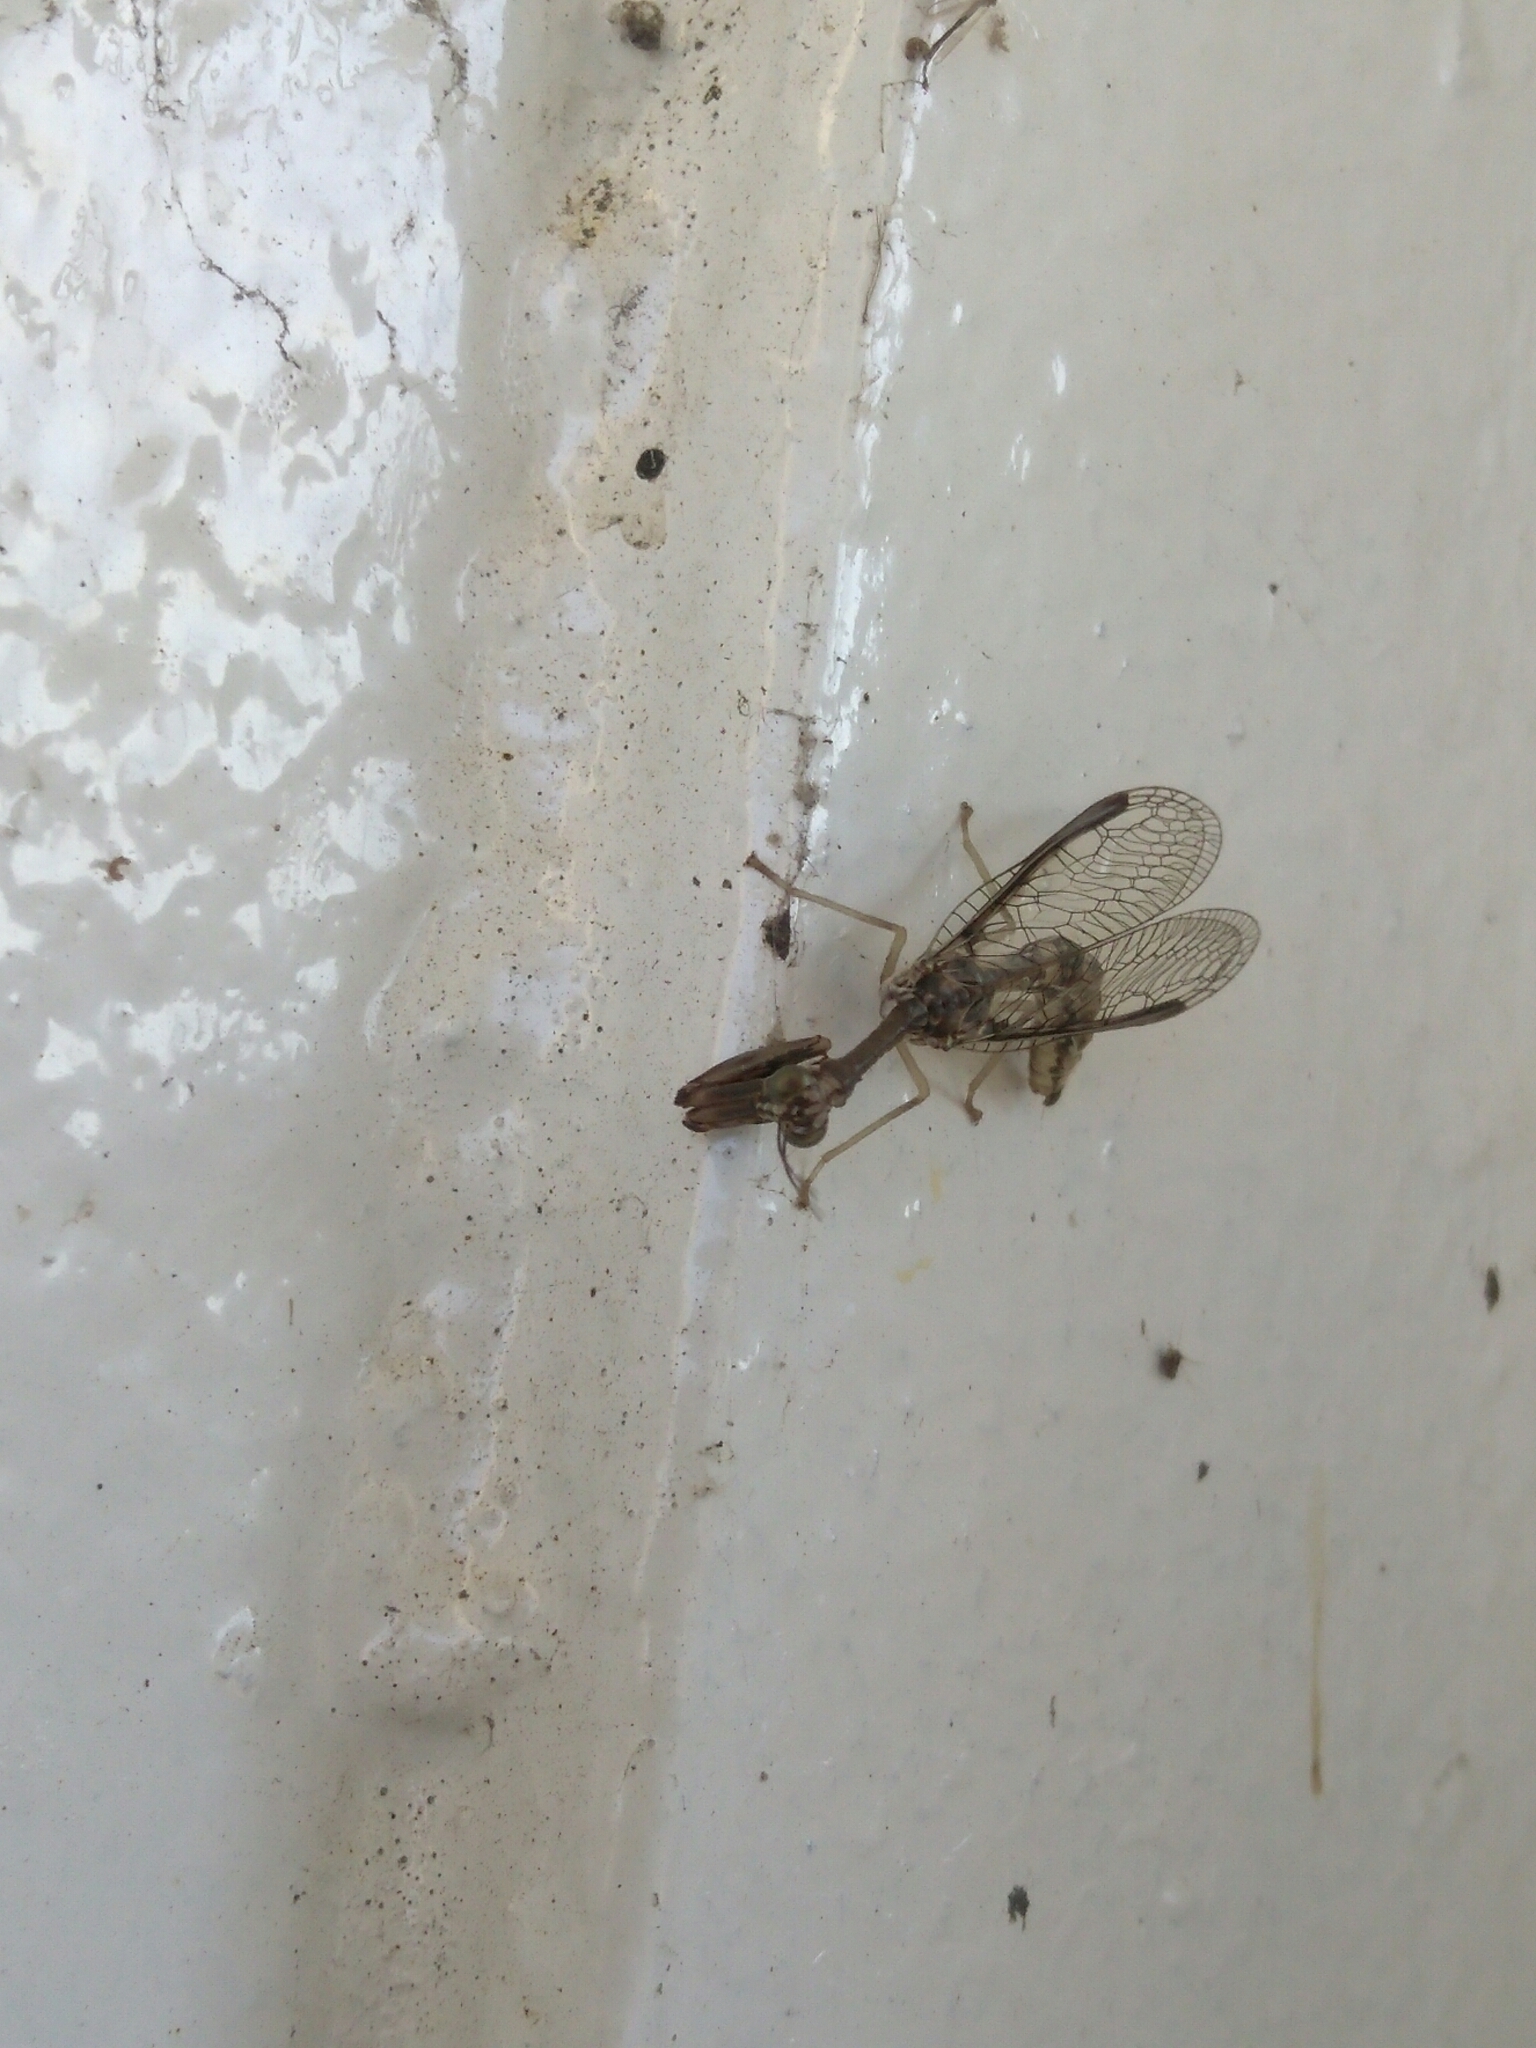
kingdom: Animalia
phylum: Arthropoda
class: Insecta
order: Neuroptera
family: Mantispidae
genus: Dicromantispa
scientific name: Dicromantispa sayi
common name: Say's mantidfly
